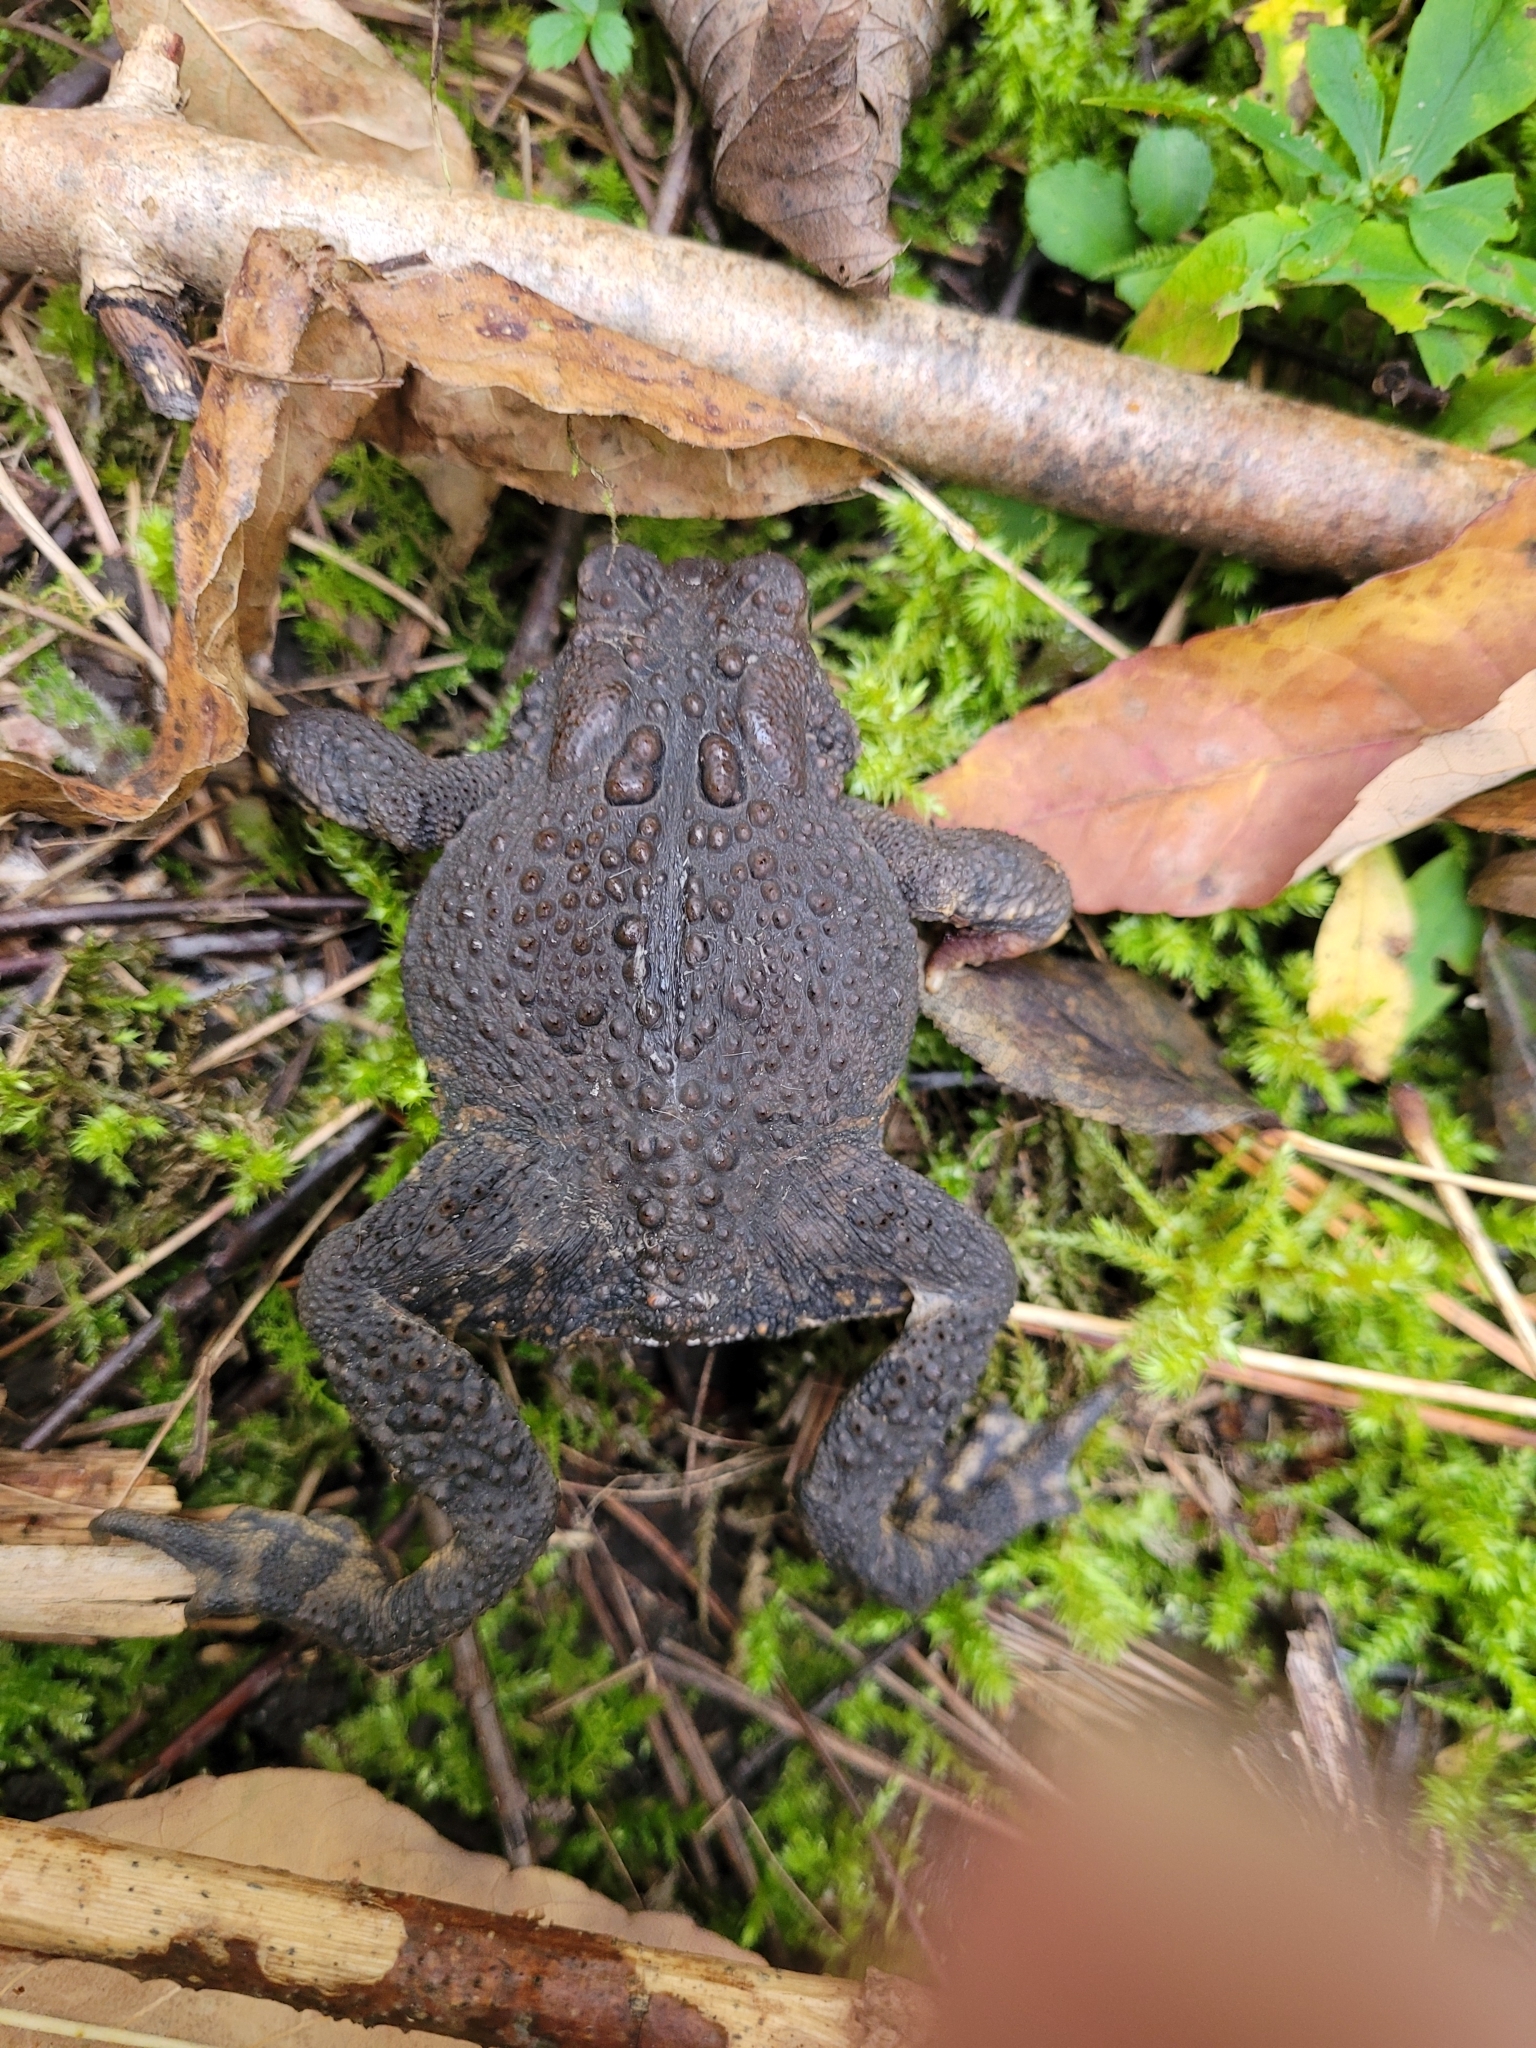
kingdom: Animalia
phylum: Chordata
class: Amphibia
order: Anura
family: Bufonidae
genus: Anaxyrus
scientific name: Anaxyrus americanus
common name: American toad
